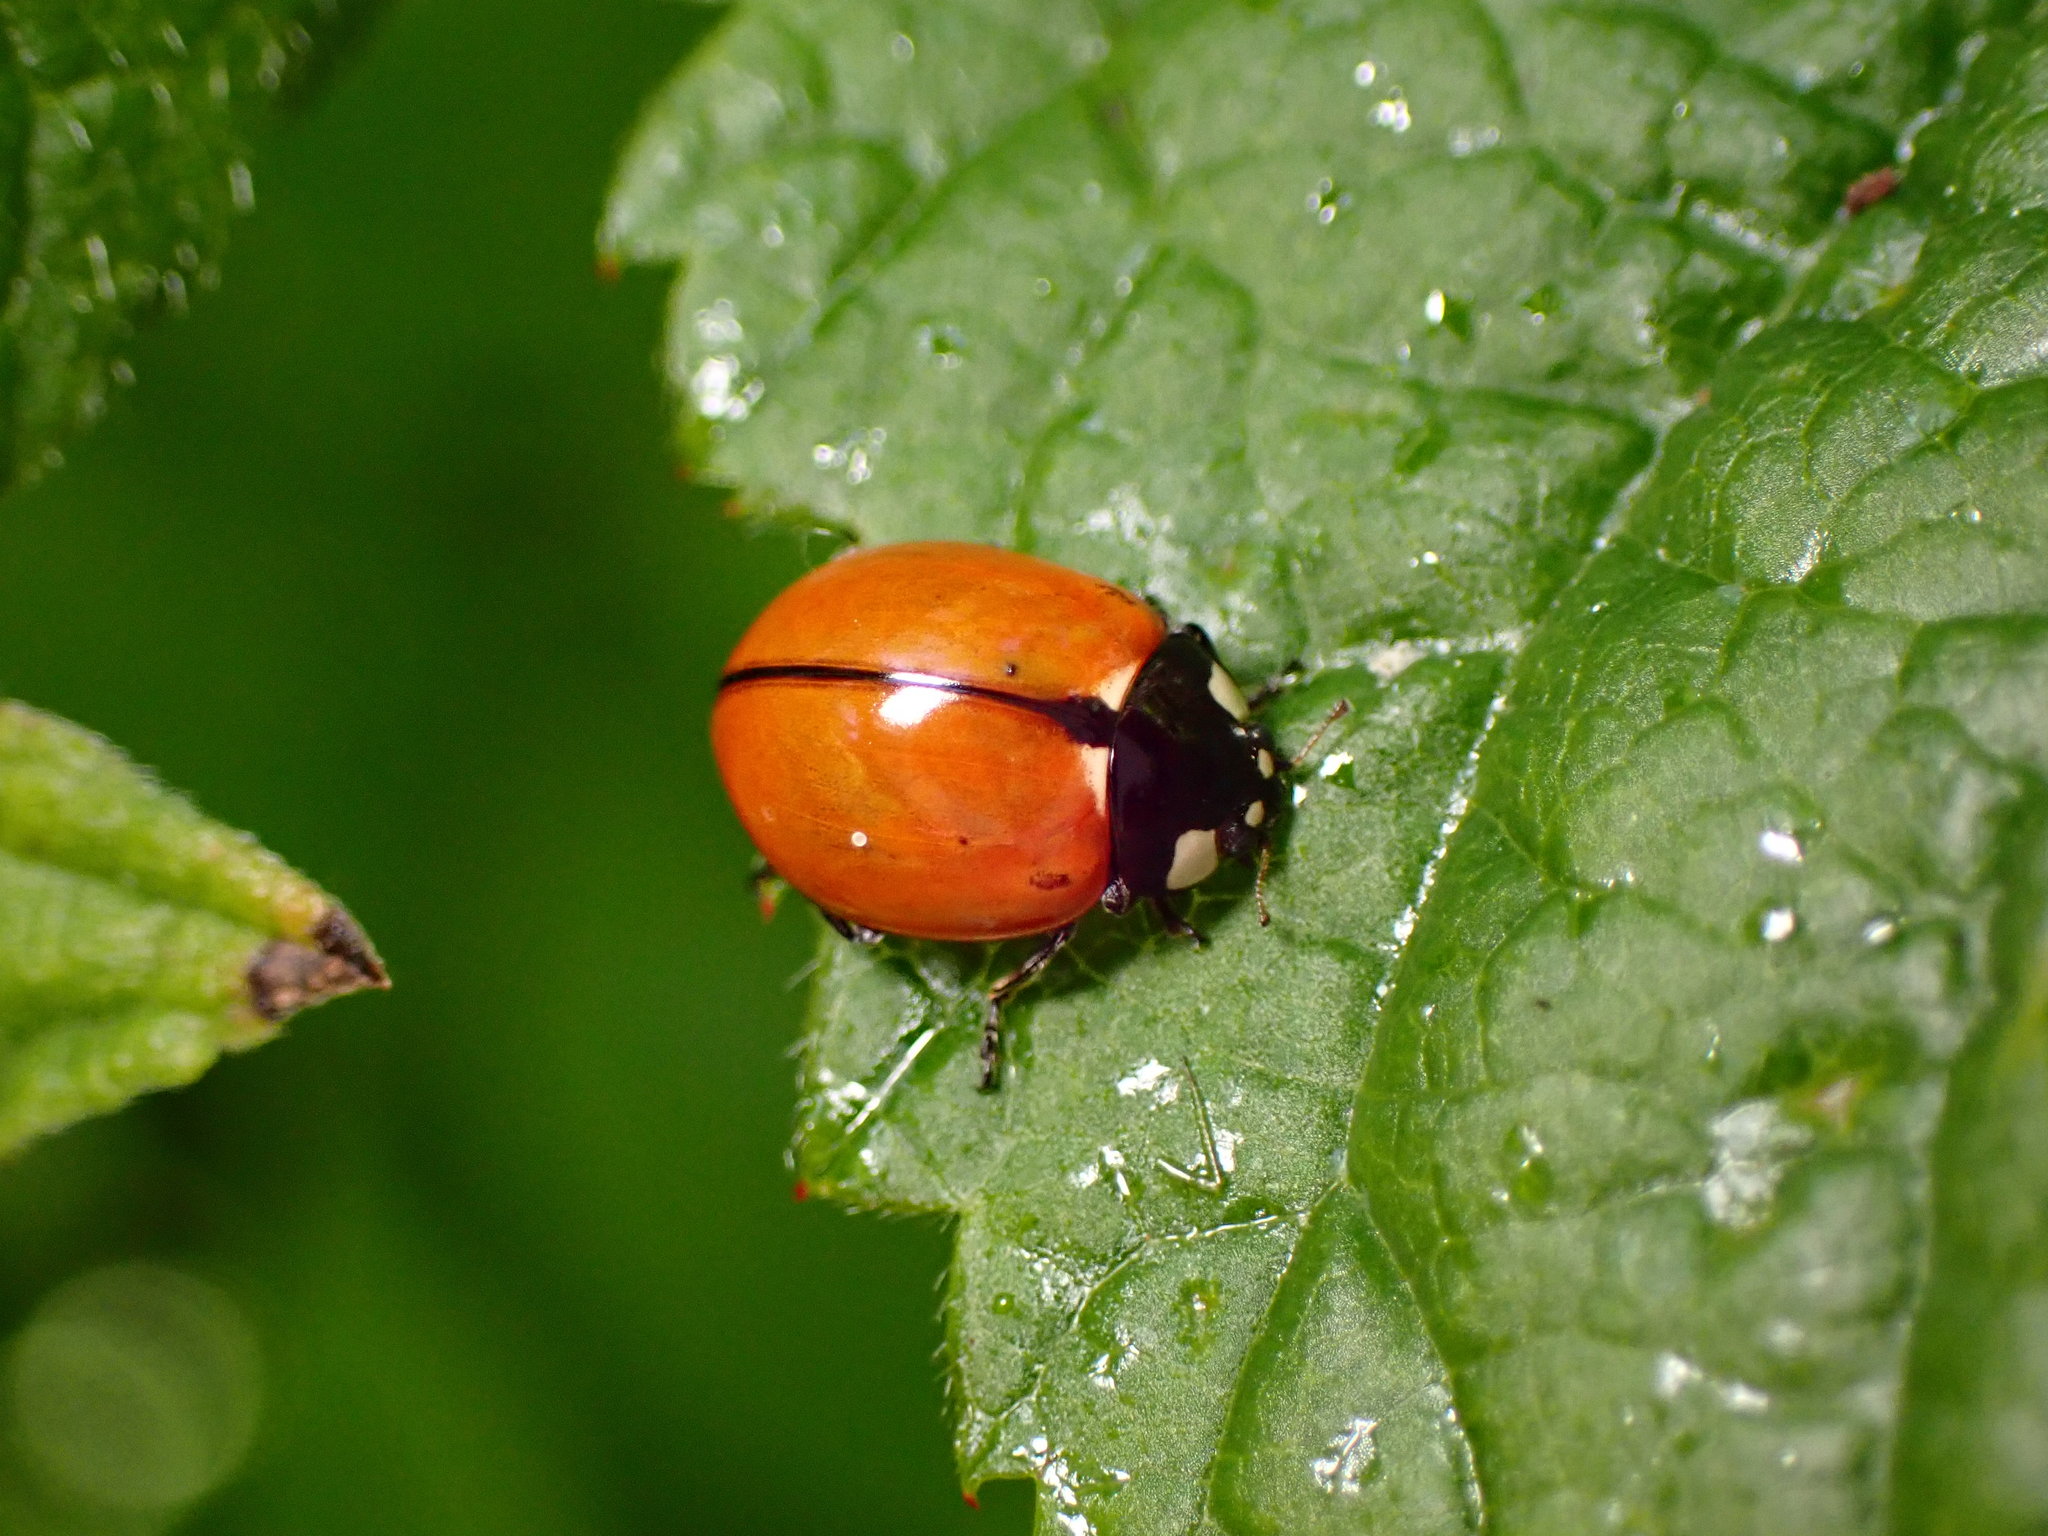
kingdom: Animalia
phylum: Arthropoda
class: Insecta
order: Coleoptera
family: Coccinellidae
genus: Coccinella
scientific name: Coccinella californica
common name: Lady beetle
